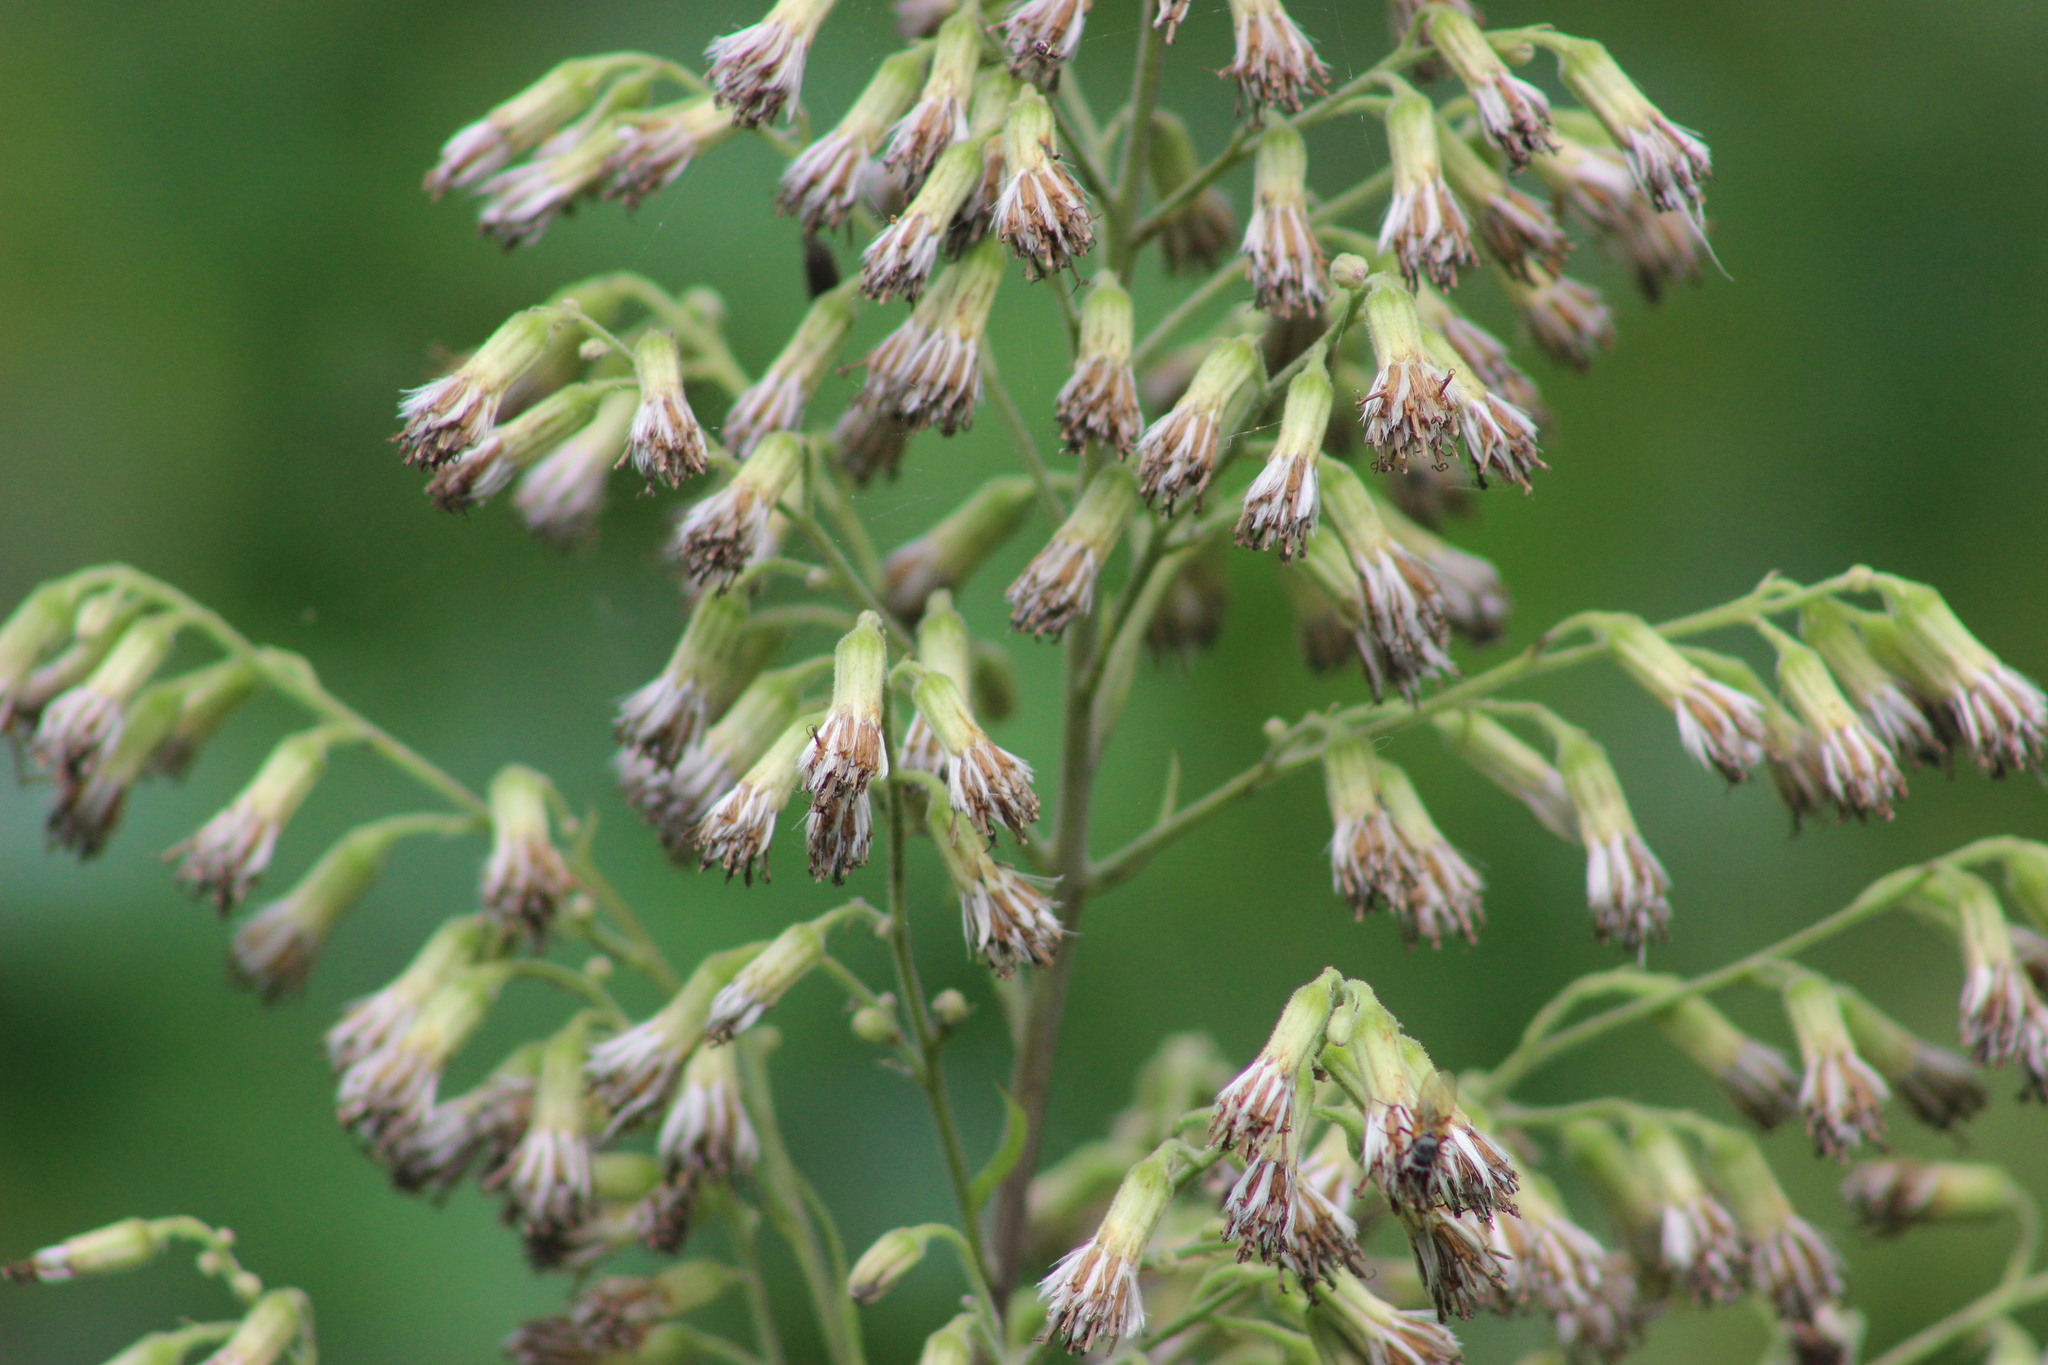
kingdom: Plantae
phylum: Tracheophyta
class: Magnoliopsida
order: Asterales
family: Asteraceae
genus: Parasenecio
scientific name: Parasenecio hastatus
